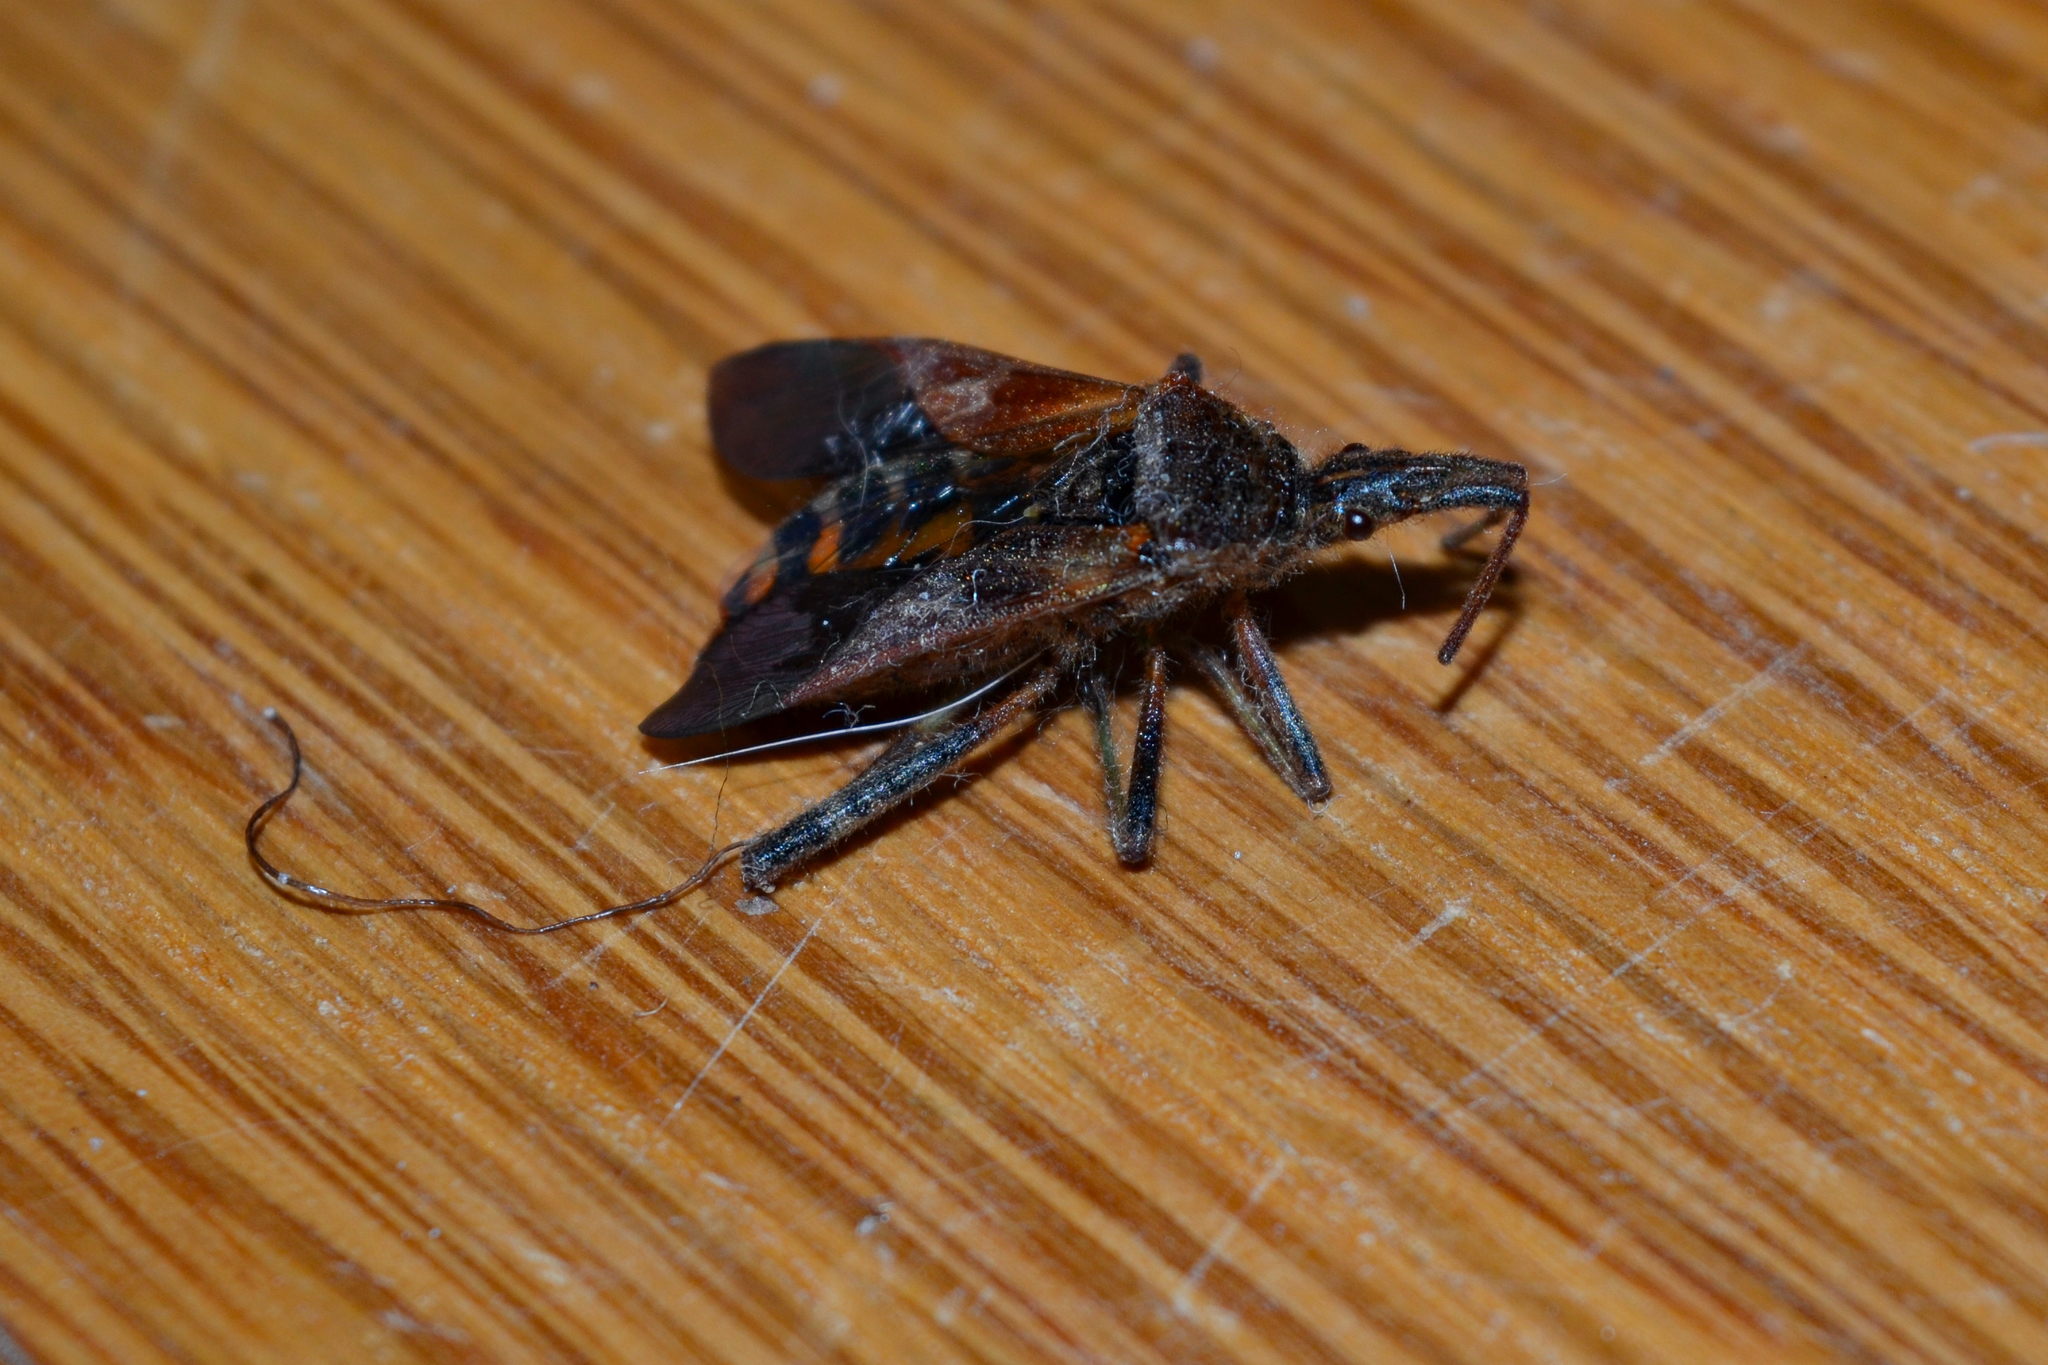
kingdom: Animalia
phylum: Arthropoda
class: Insecta
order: Hemiptera
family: Coreidae
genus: Leptoglossus
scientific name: Leptoglossus occidentalis
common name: Western conifer-seed bug
